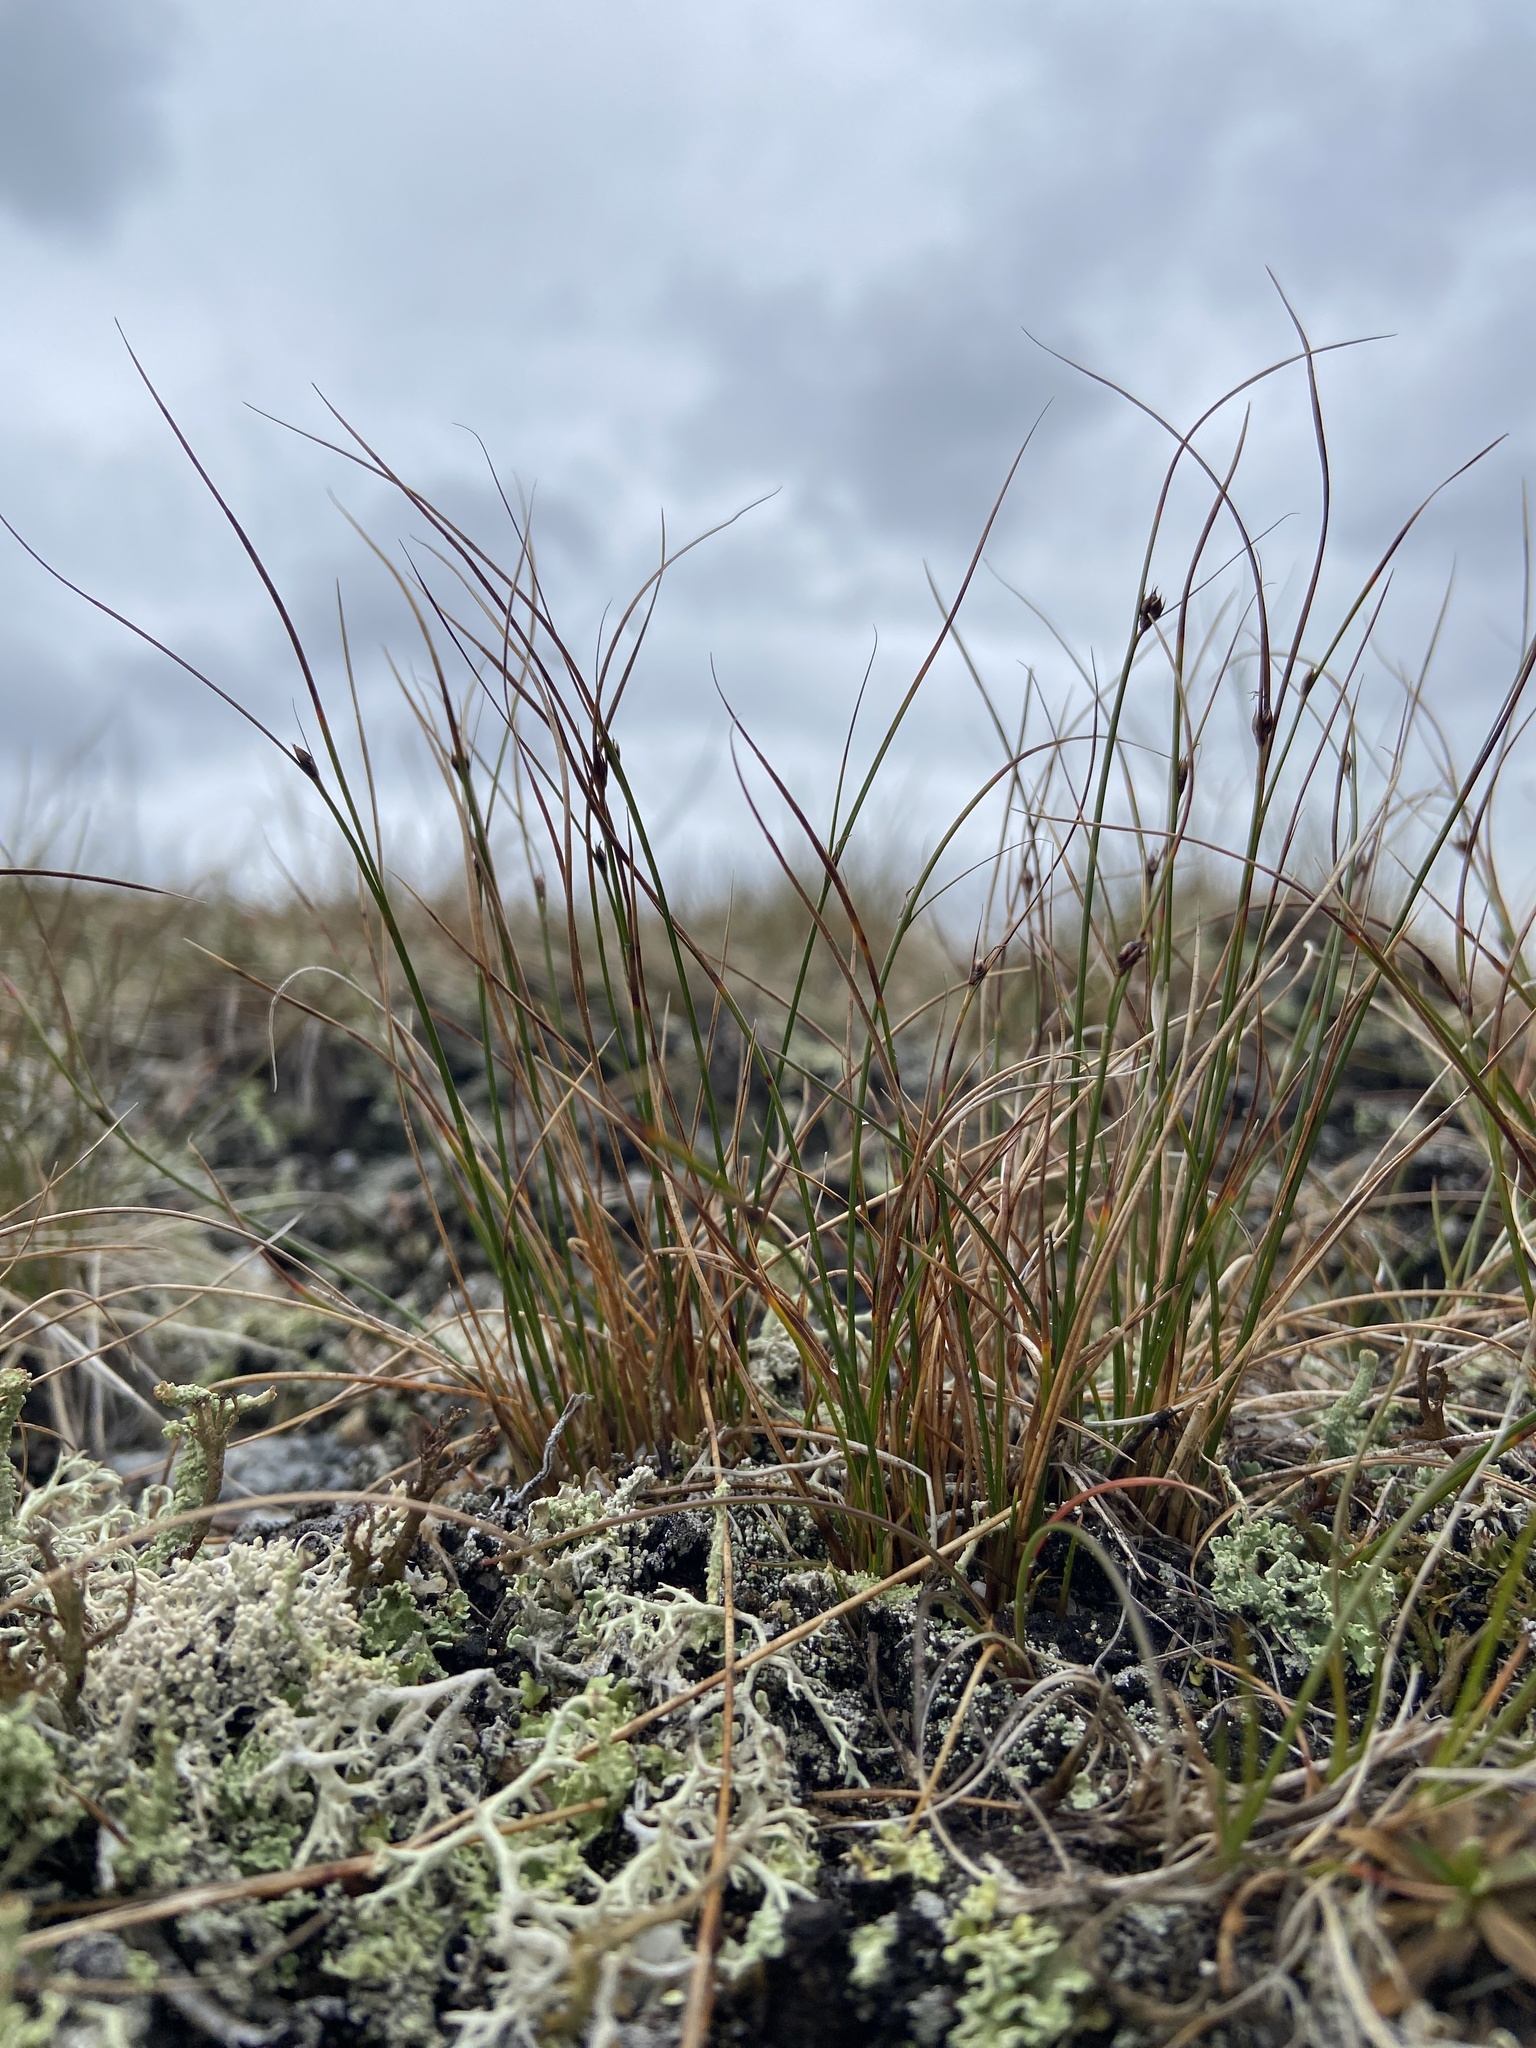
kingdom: Plantae
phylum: Tracheophyta
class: Liliopsida
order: Poales
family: Juncaceae
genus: Oreojuncus
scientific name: Oreojuncus trifidus
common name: Highland rush
